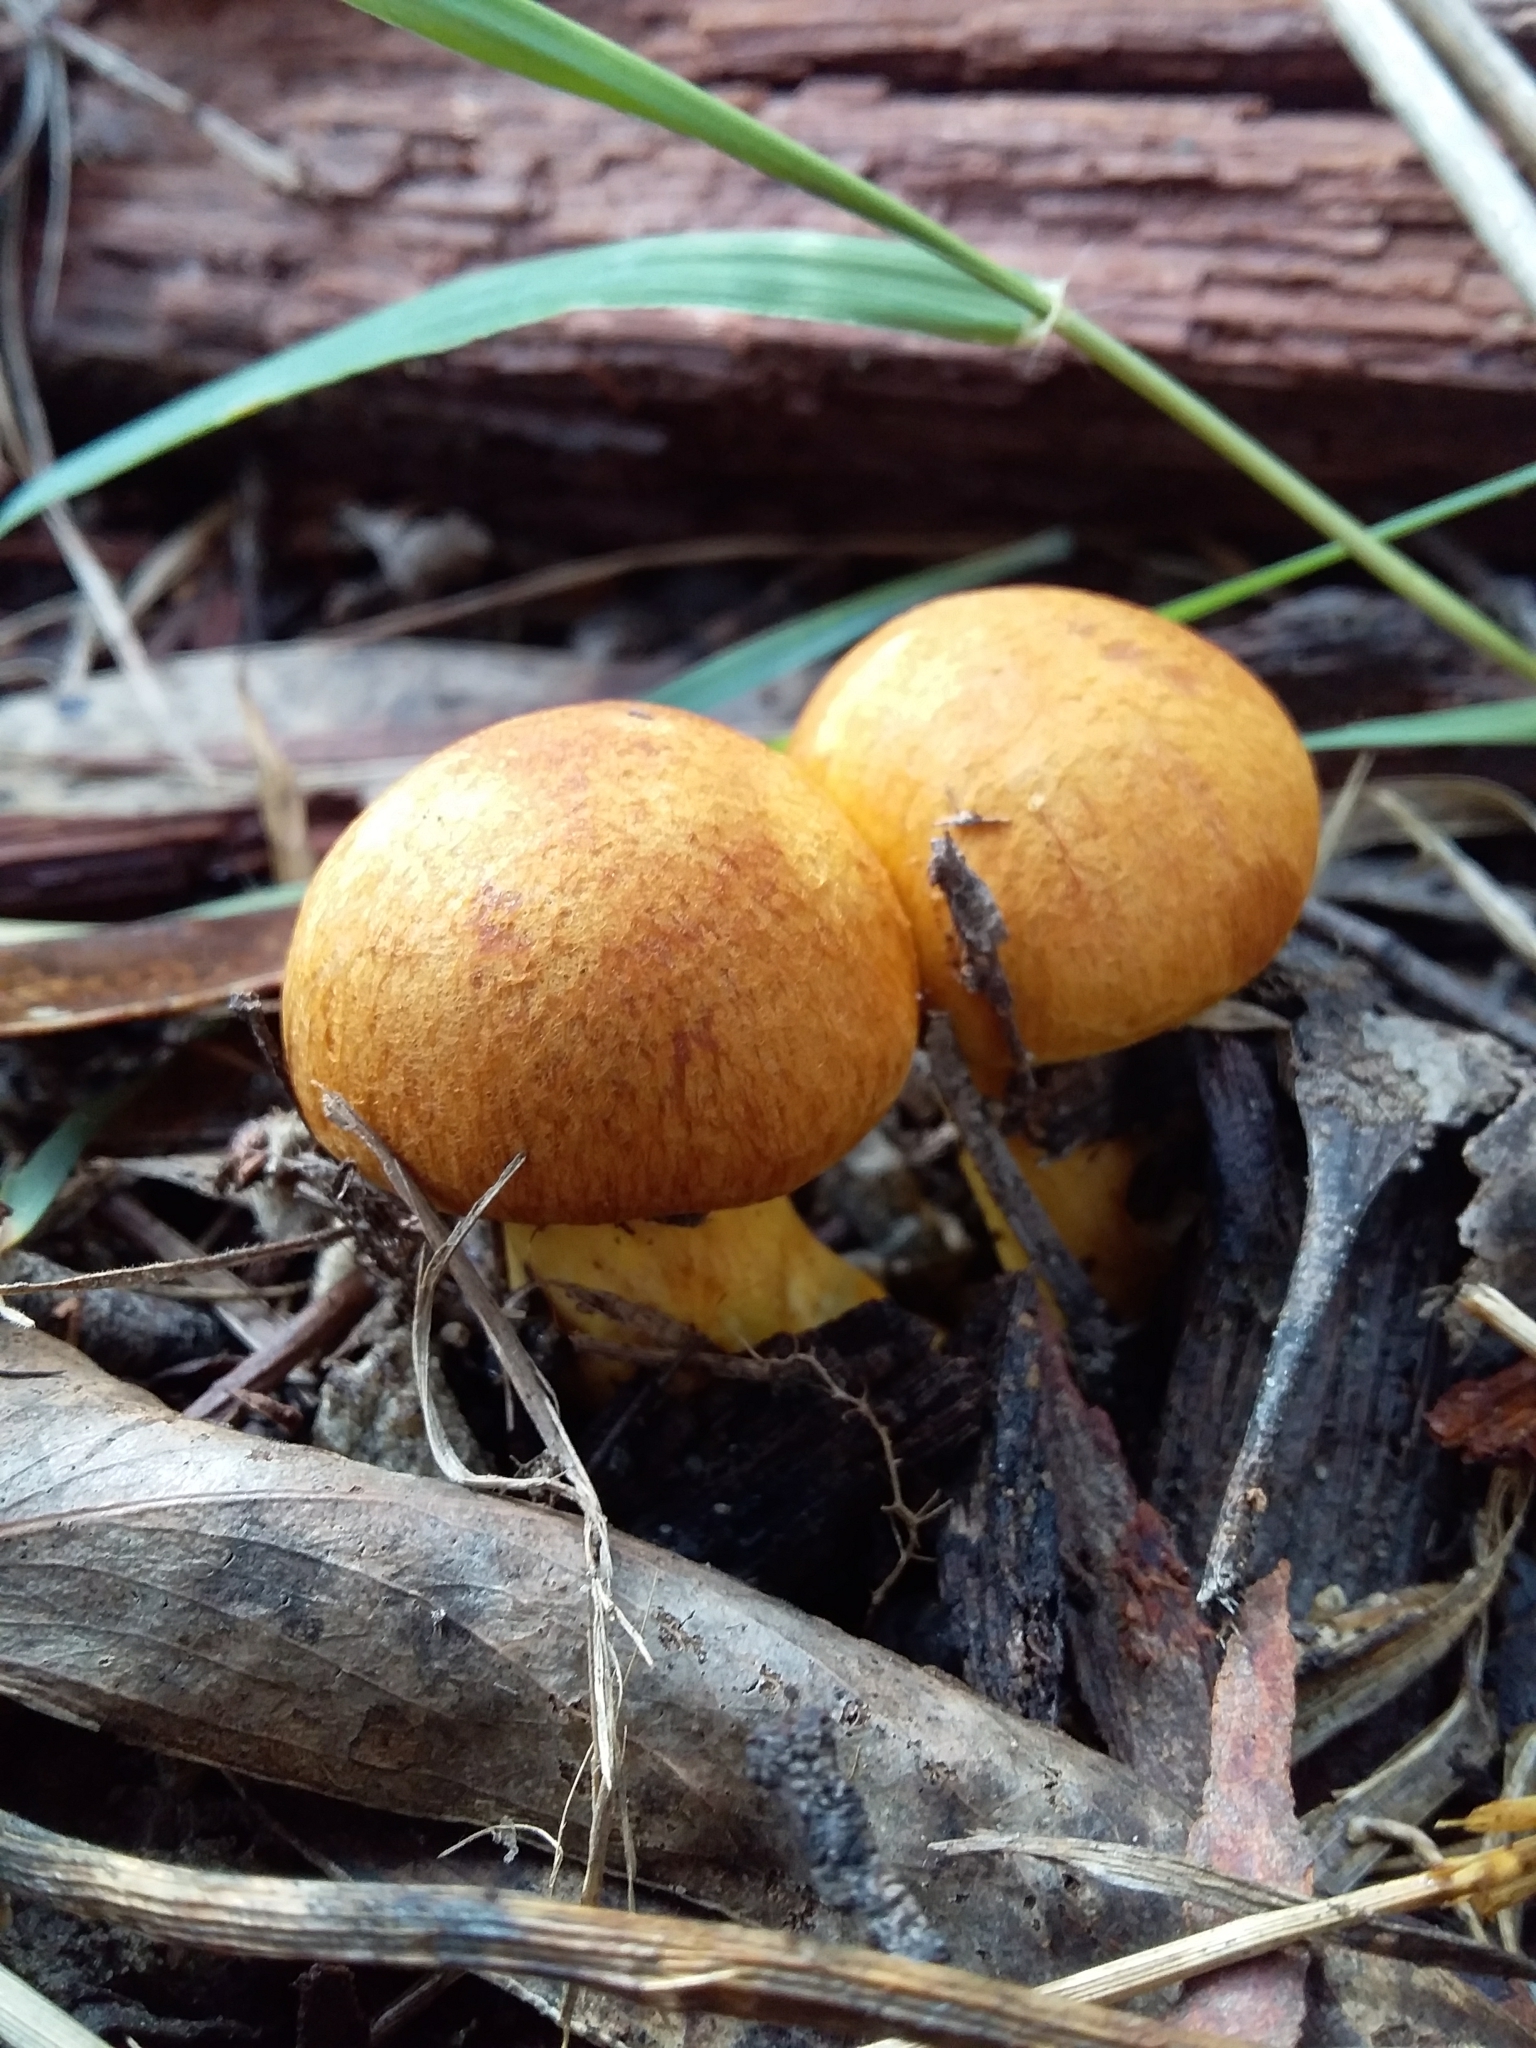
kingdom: Fungi
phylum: Basidiomycota
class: Agaricomycetes
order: Agaricales
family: Hymenogastraceae
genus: Gymnopilus
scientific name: Gymnopilus junonius
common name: Spectacular rustgill
